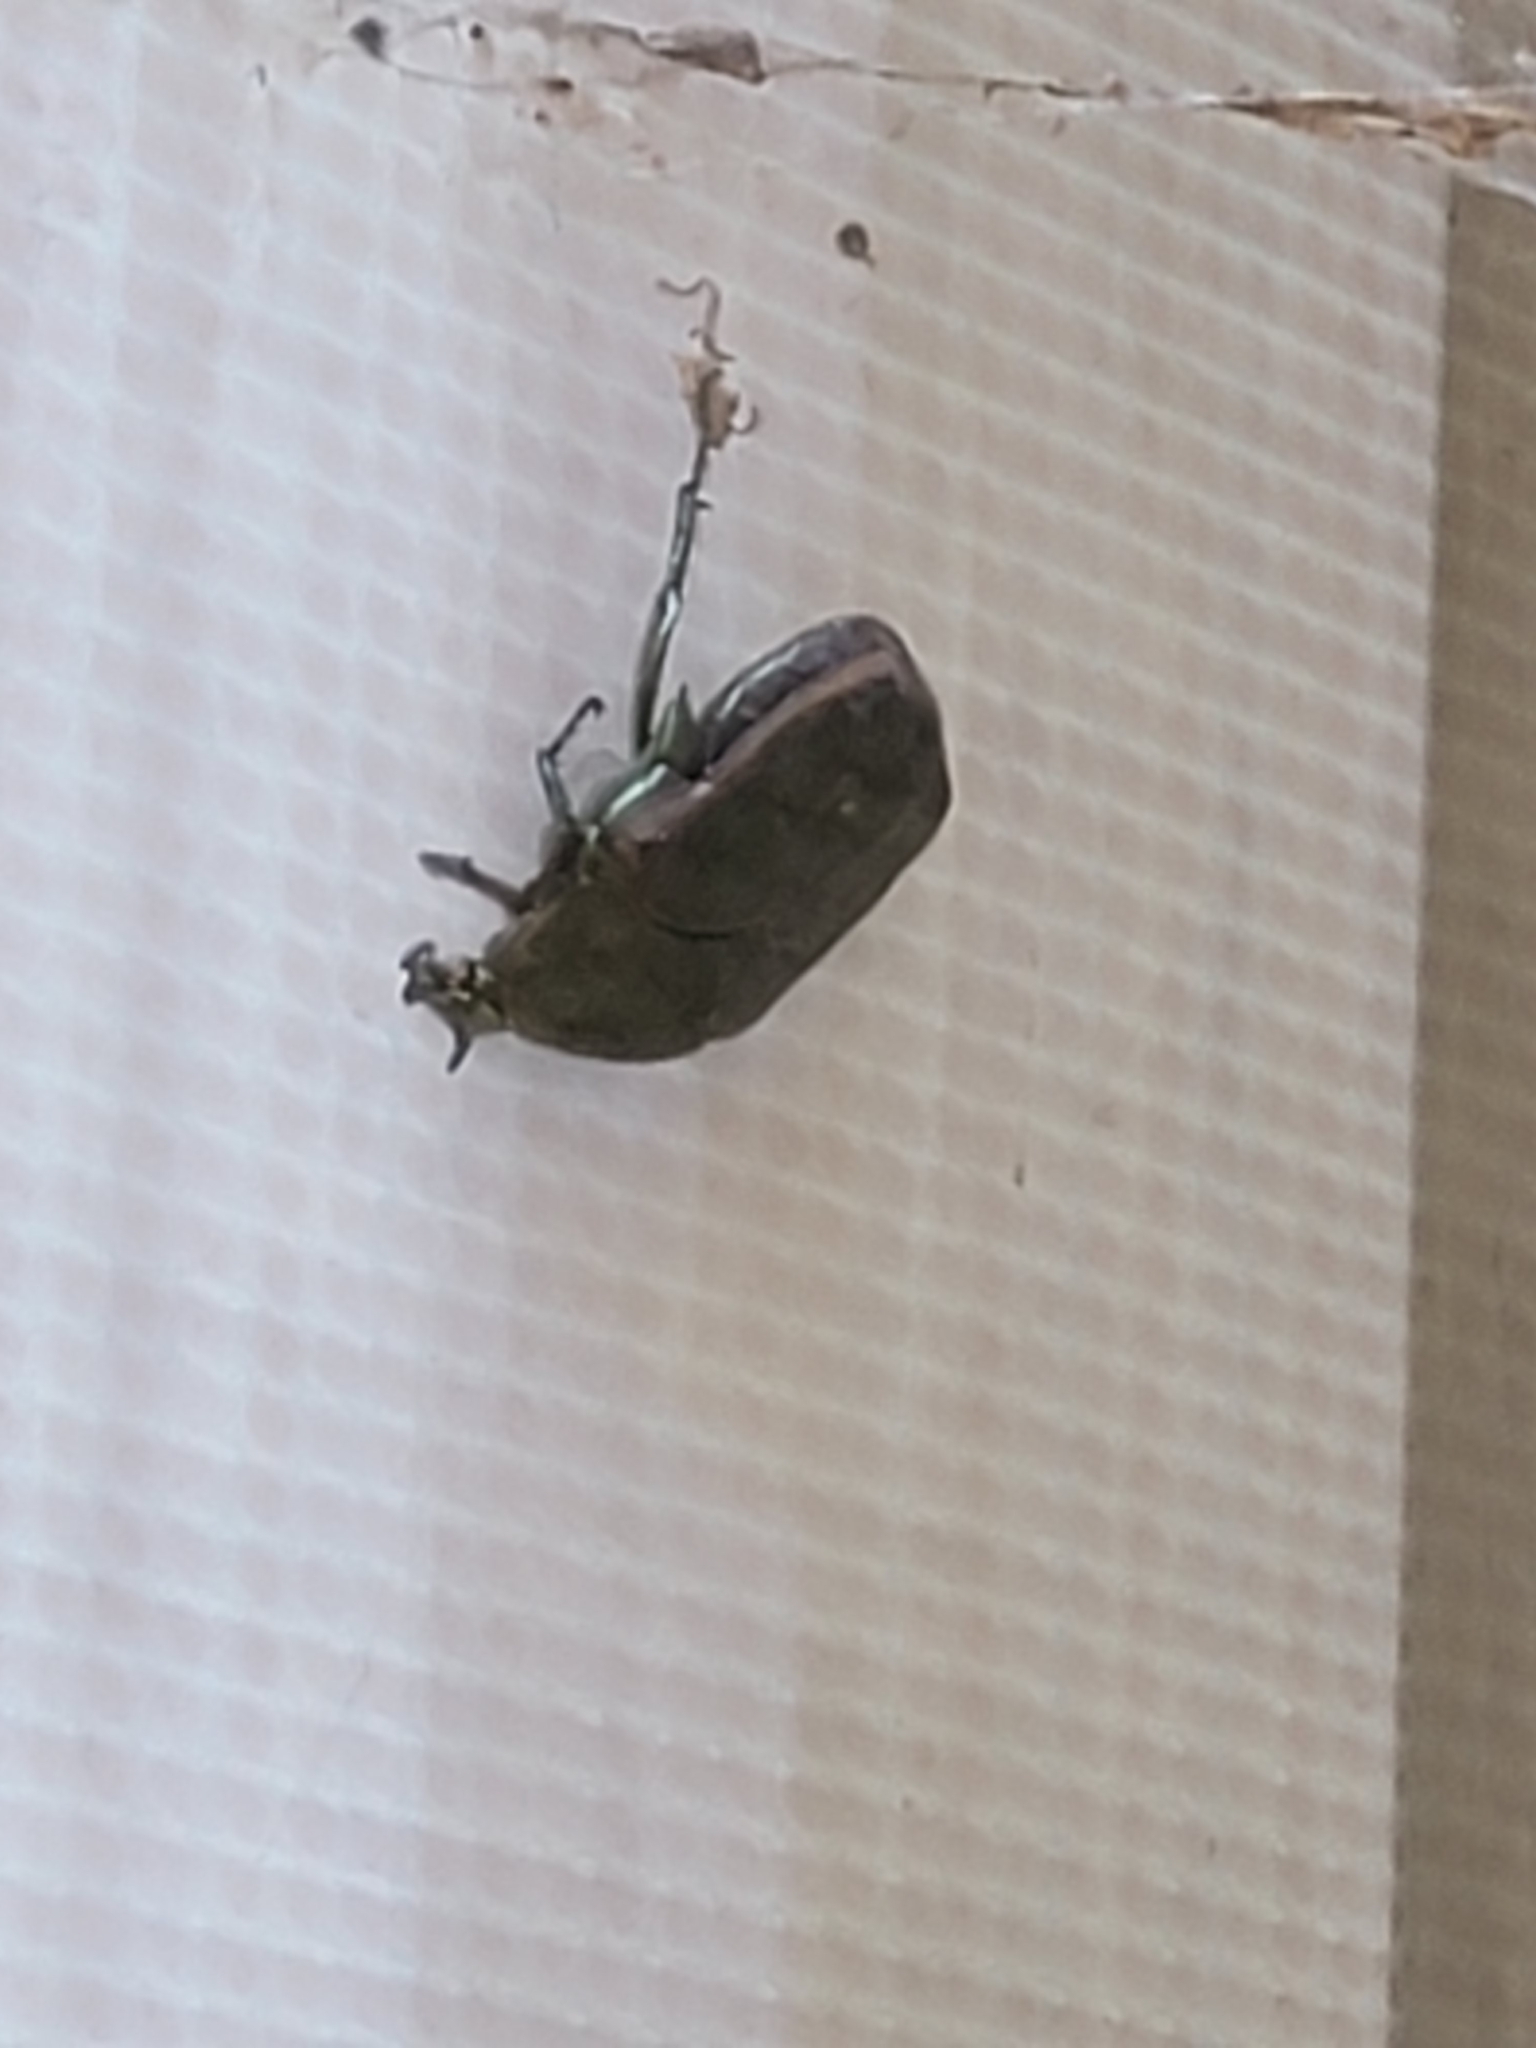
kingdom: Animalia
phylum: Arthropoda
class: Insecta
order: Coleoptera
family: Scarabaeidae
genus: Cotinis
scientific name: Cotinis nitida
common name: Common green june beetle
